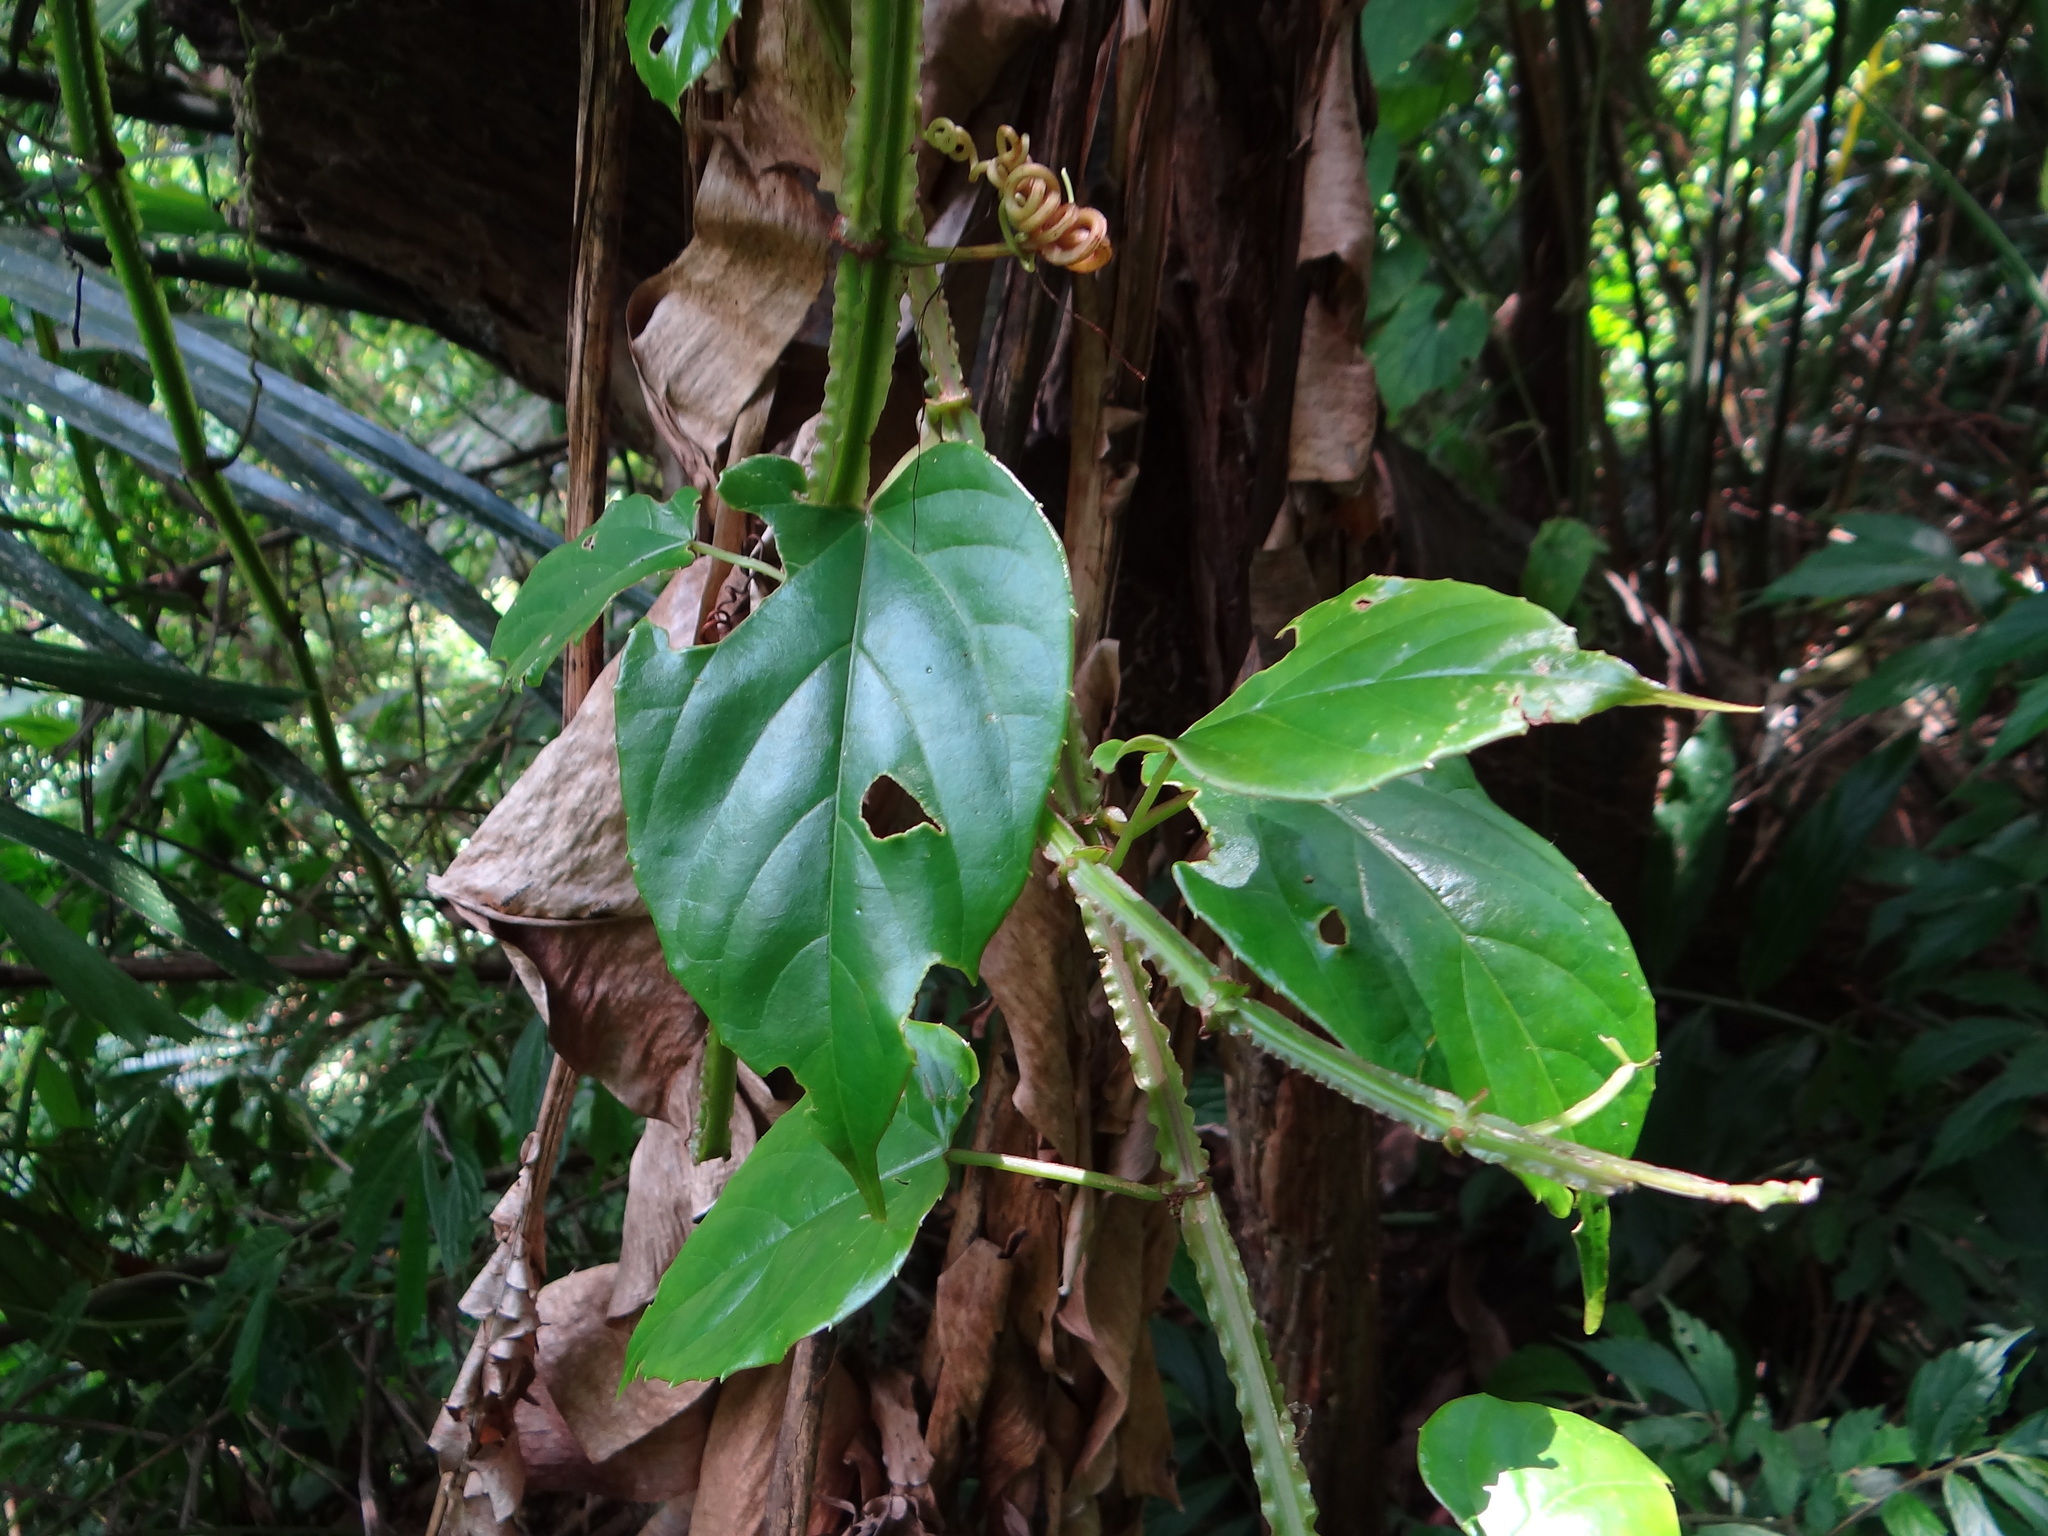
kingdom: Plantae
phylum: Tracheophyta
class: Magnoliopsida
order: Vitales
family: Vitaceae
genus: Cissus
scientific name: Cissus pteroclada
